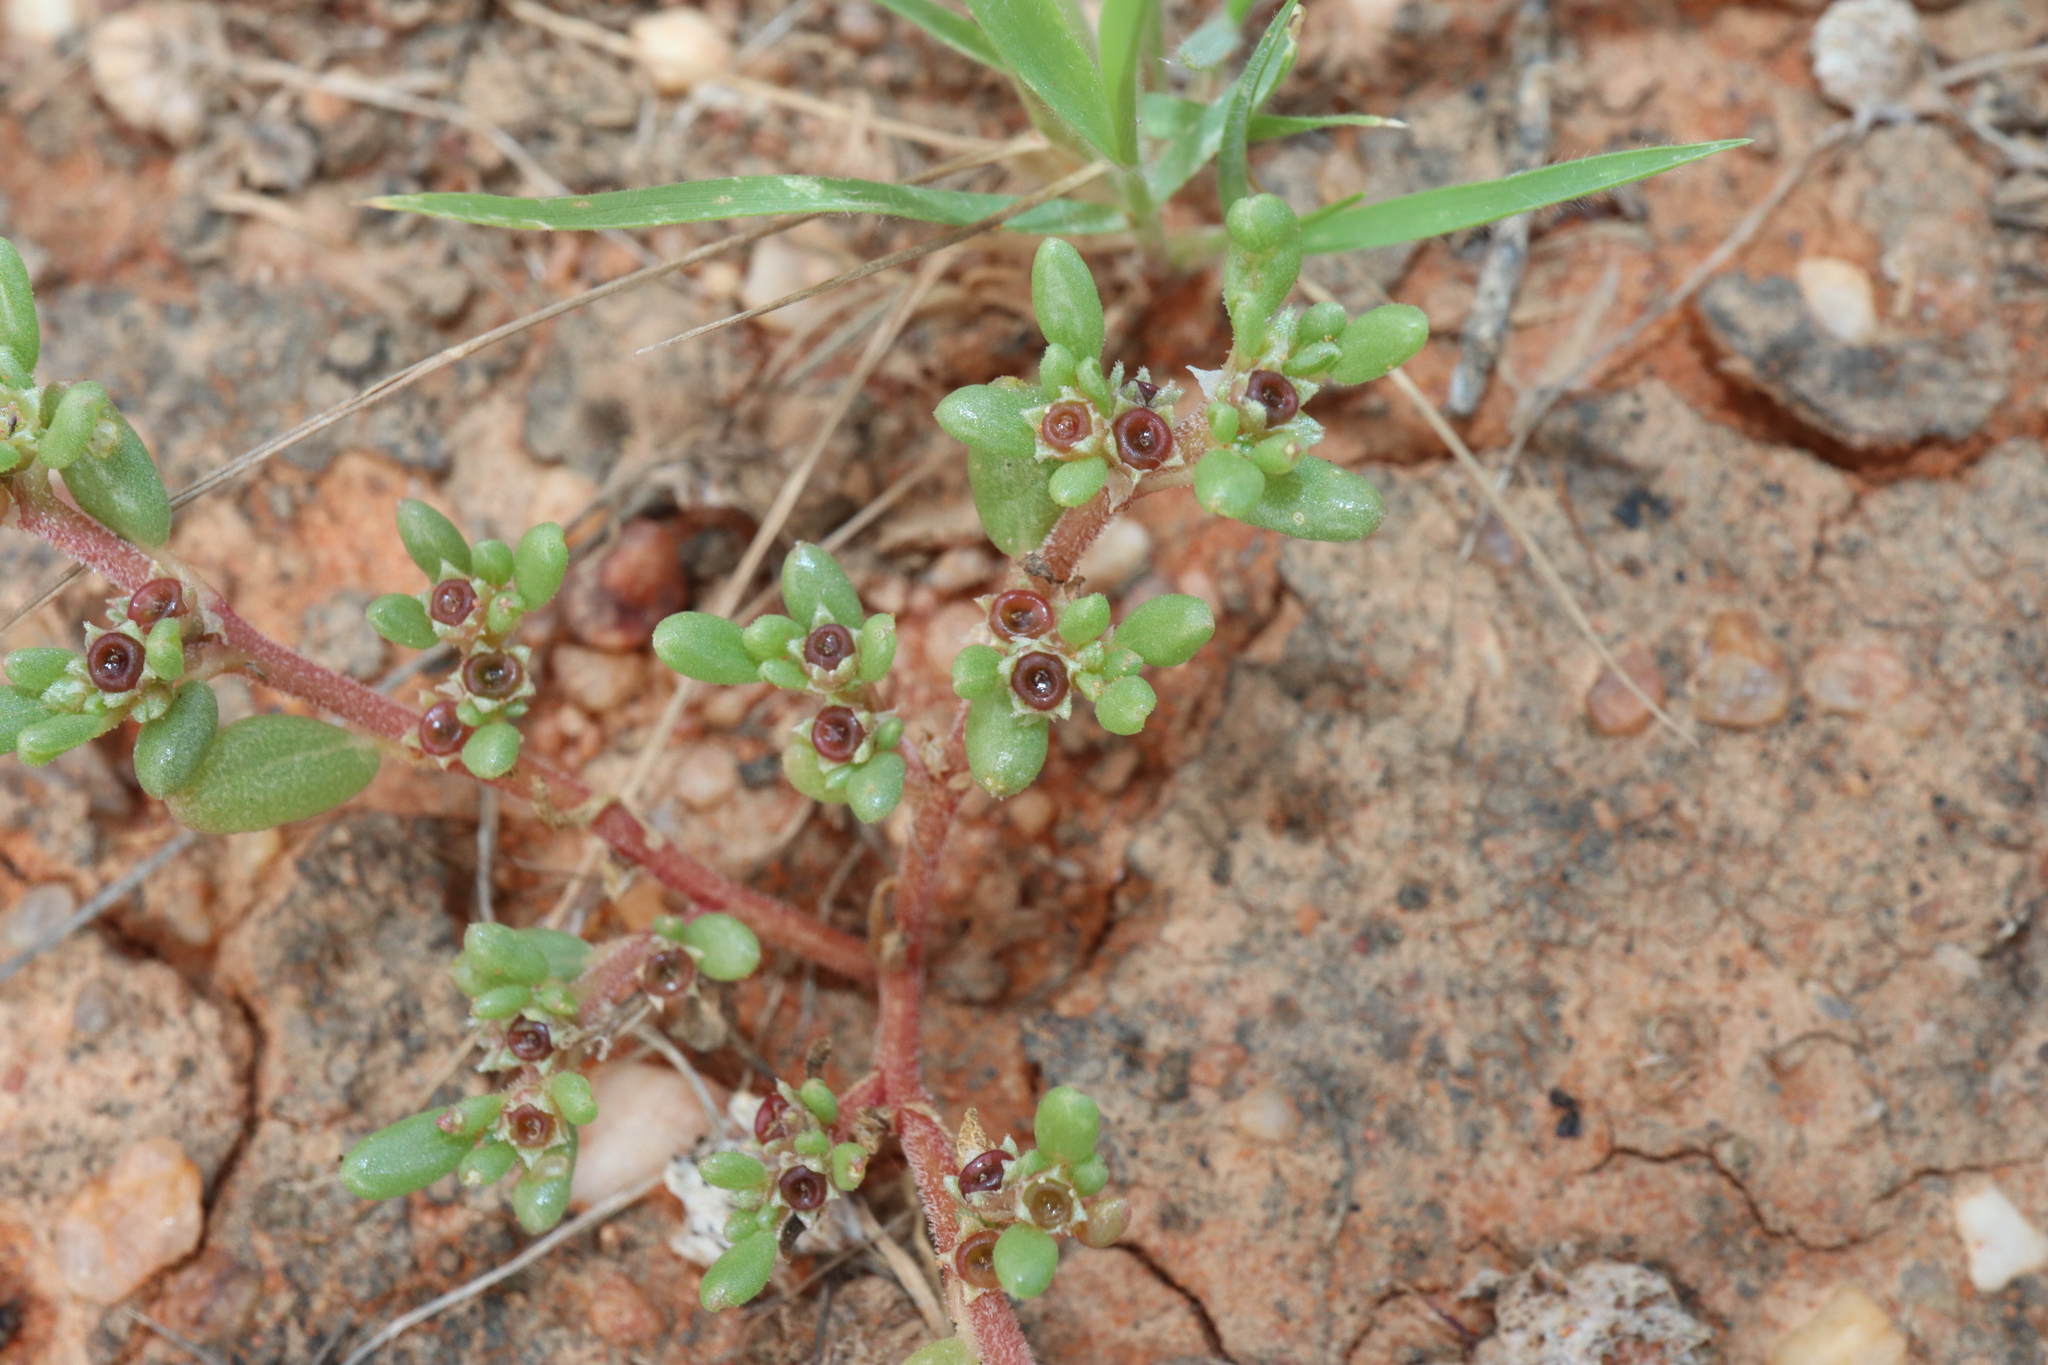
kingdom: Plantae
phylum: Tracheophyta
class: Magnoliopsida
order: Caryophyllales
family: Aizoaceae
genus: Trianthema
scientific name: Trianthema triquetrum
